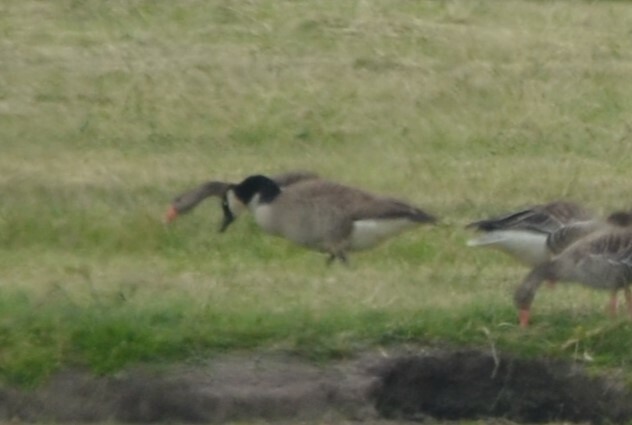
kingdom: Animalia
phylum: Chordata
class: Aves
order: Anseriformes
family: Anatidae
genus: Branta
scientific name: Branta canadensis
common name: Canada goose
